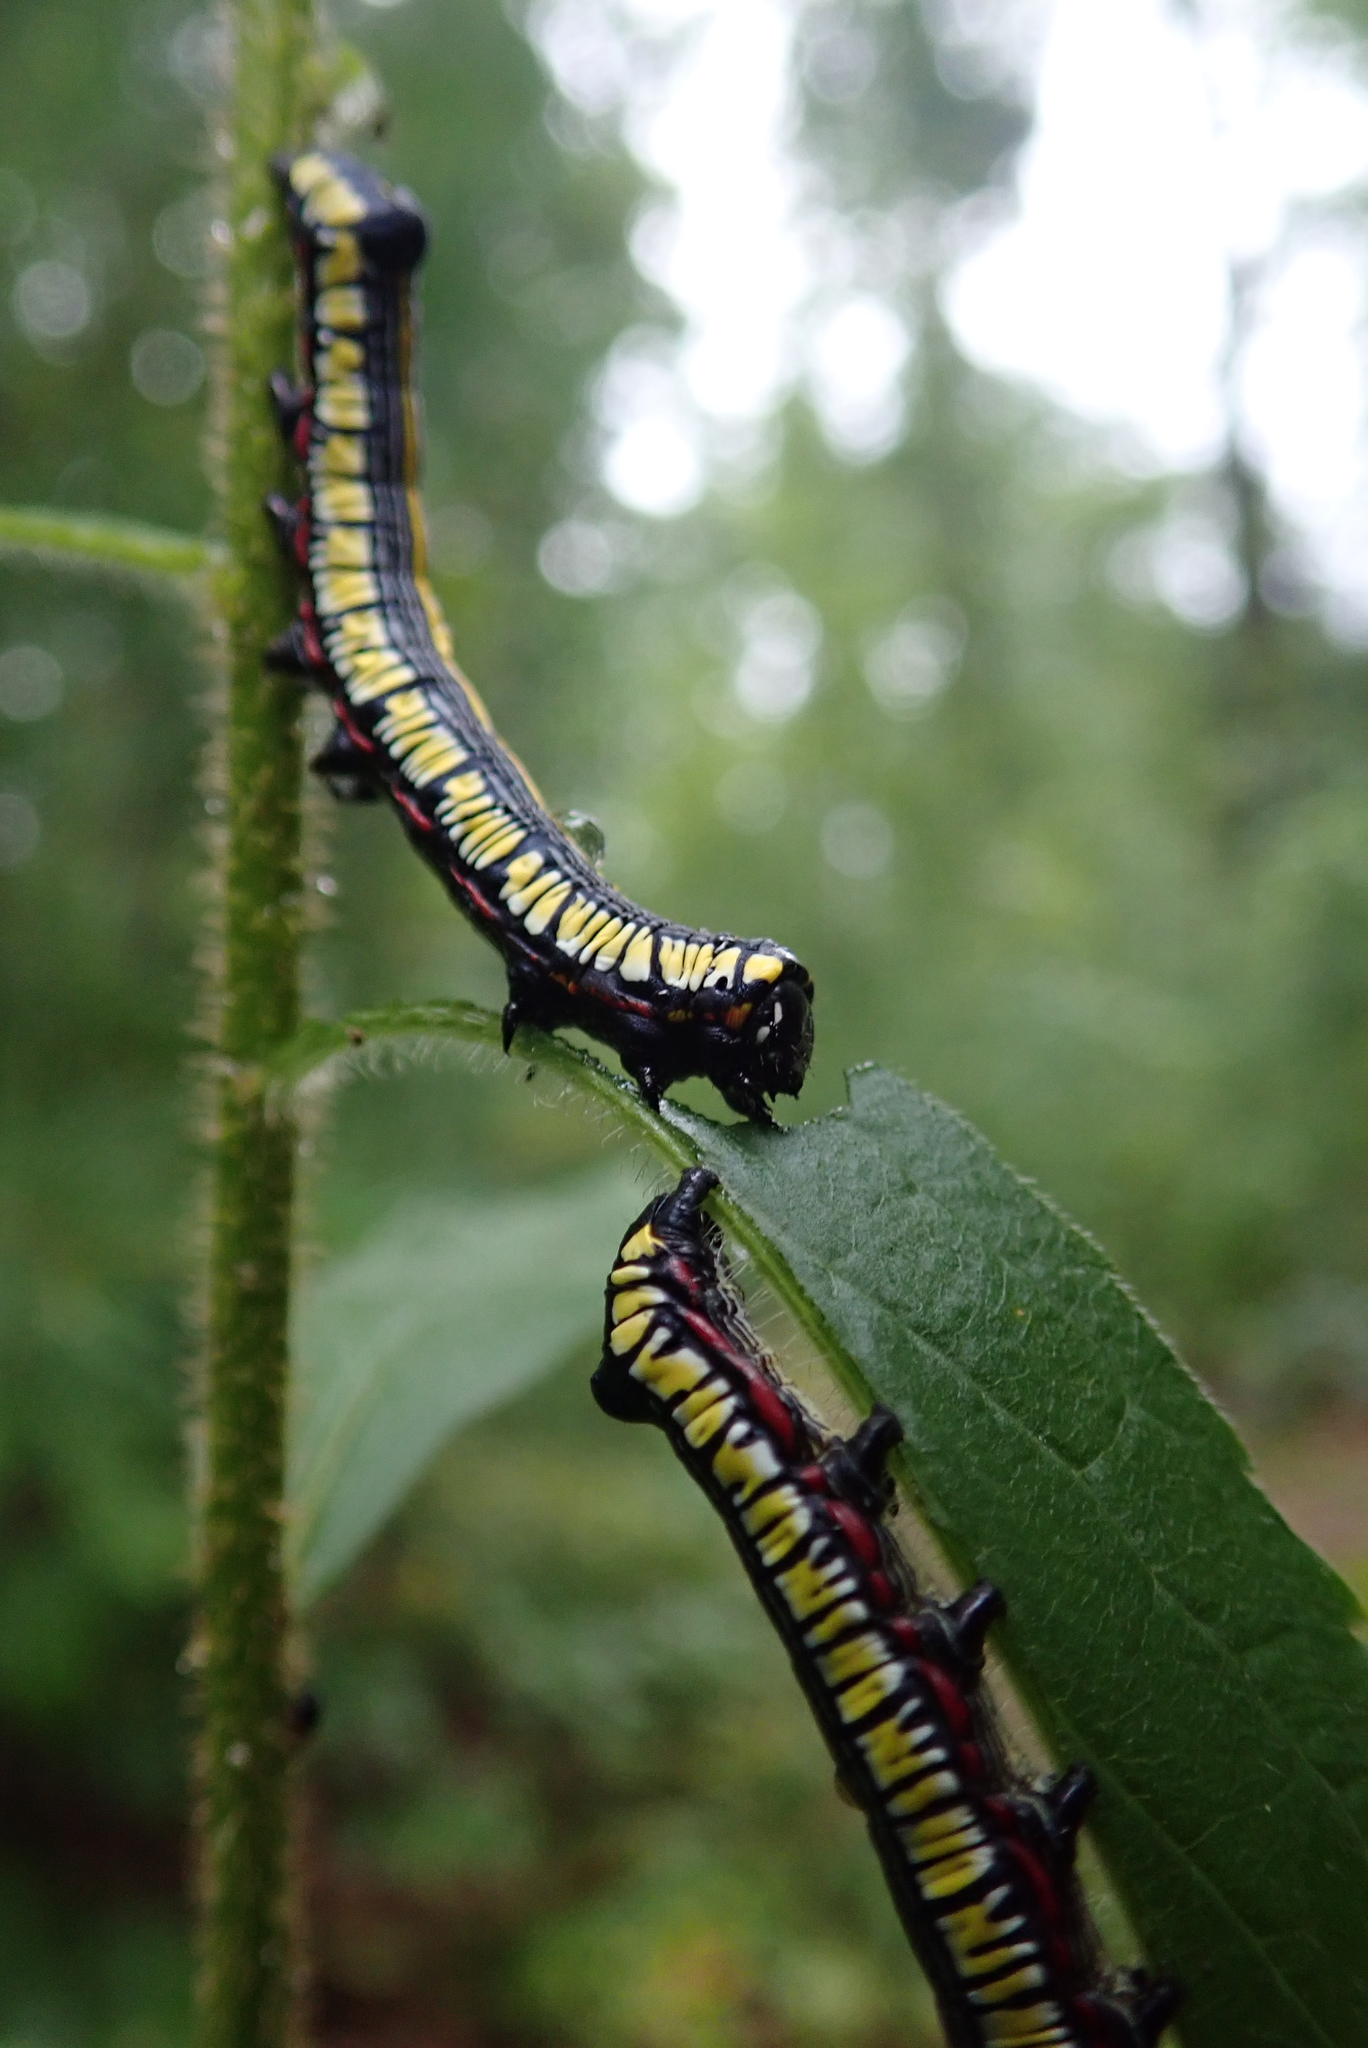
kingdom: Animalia
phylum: Arthropoda
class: Insecta
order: Lepidoptera
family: Noctuidae
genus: Cucullia
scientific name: Cucullia convexipennis
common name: Brown-hooded owlet
